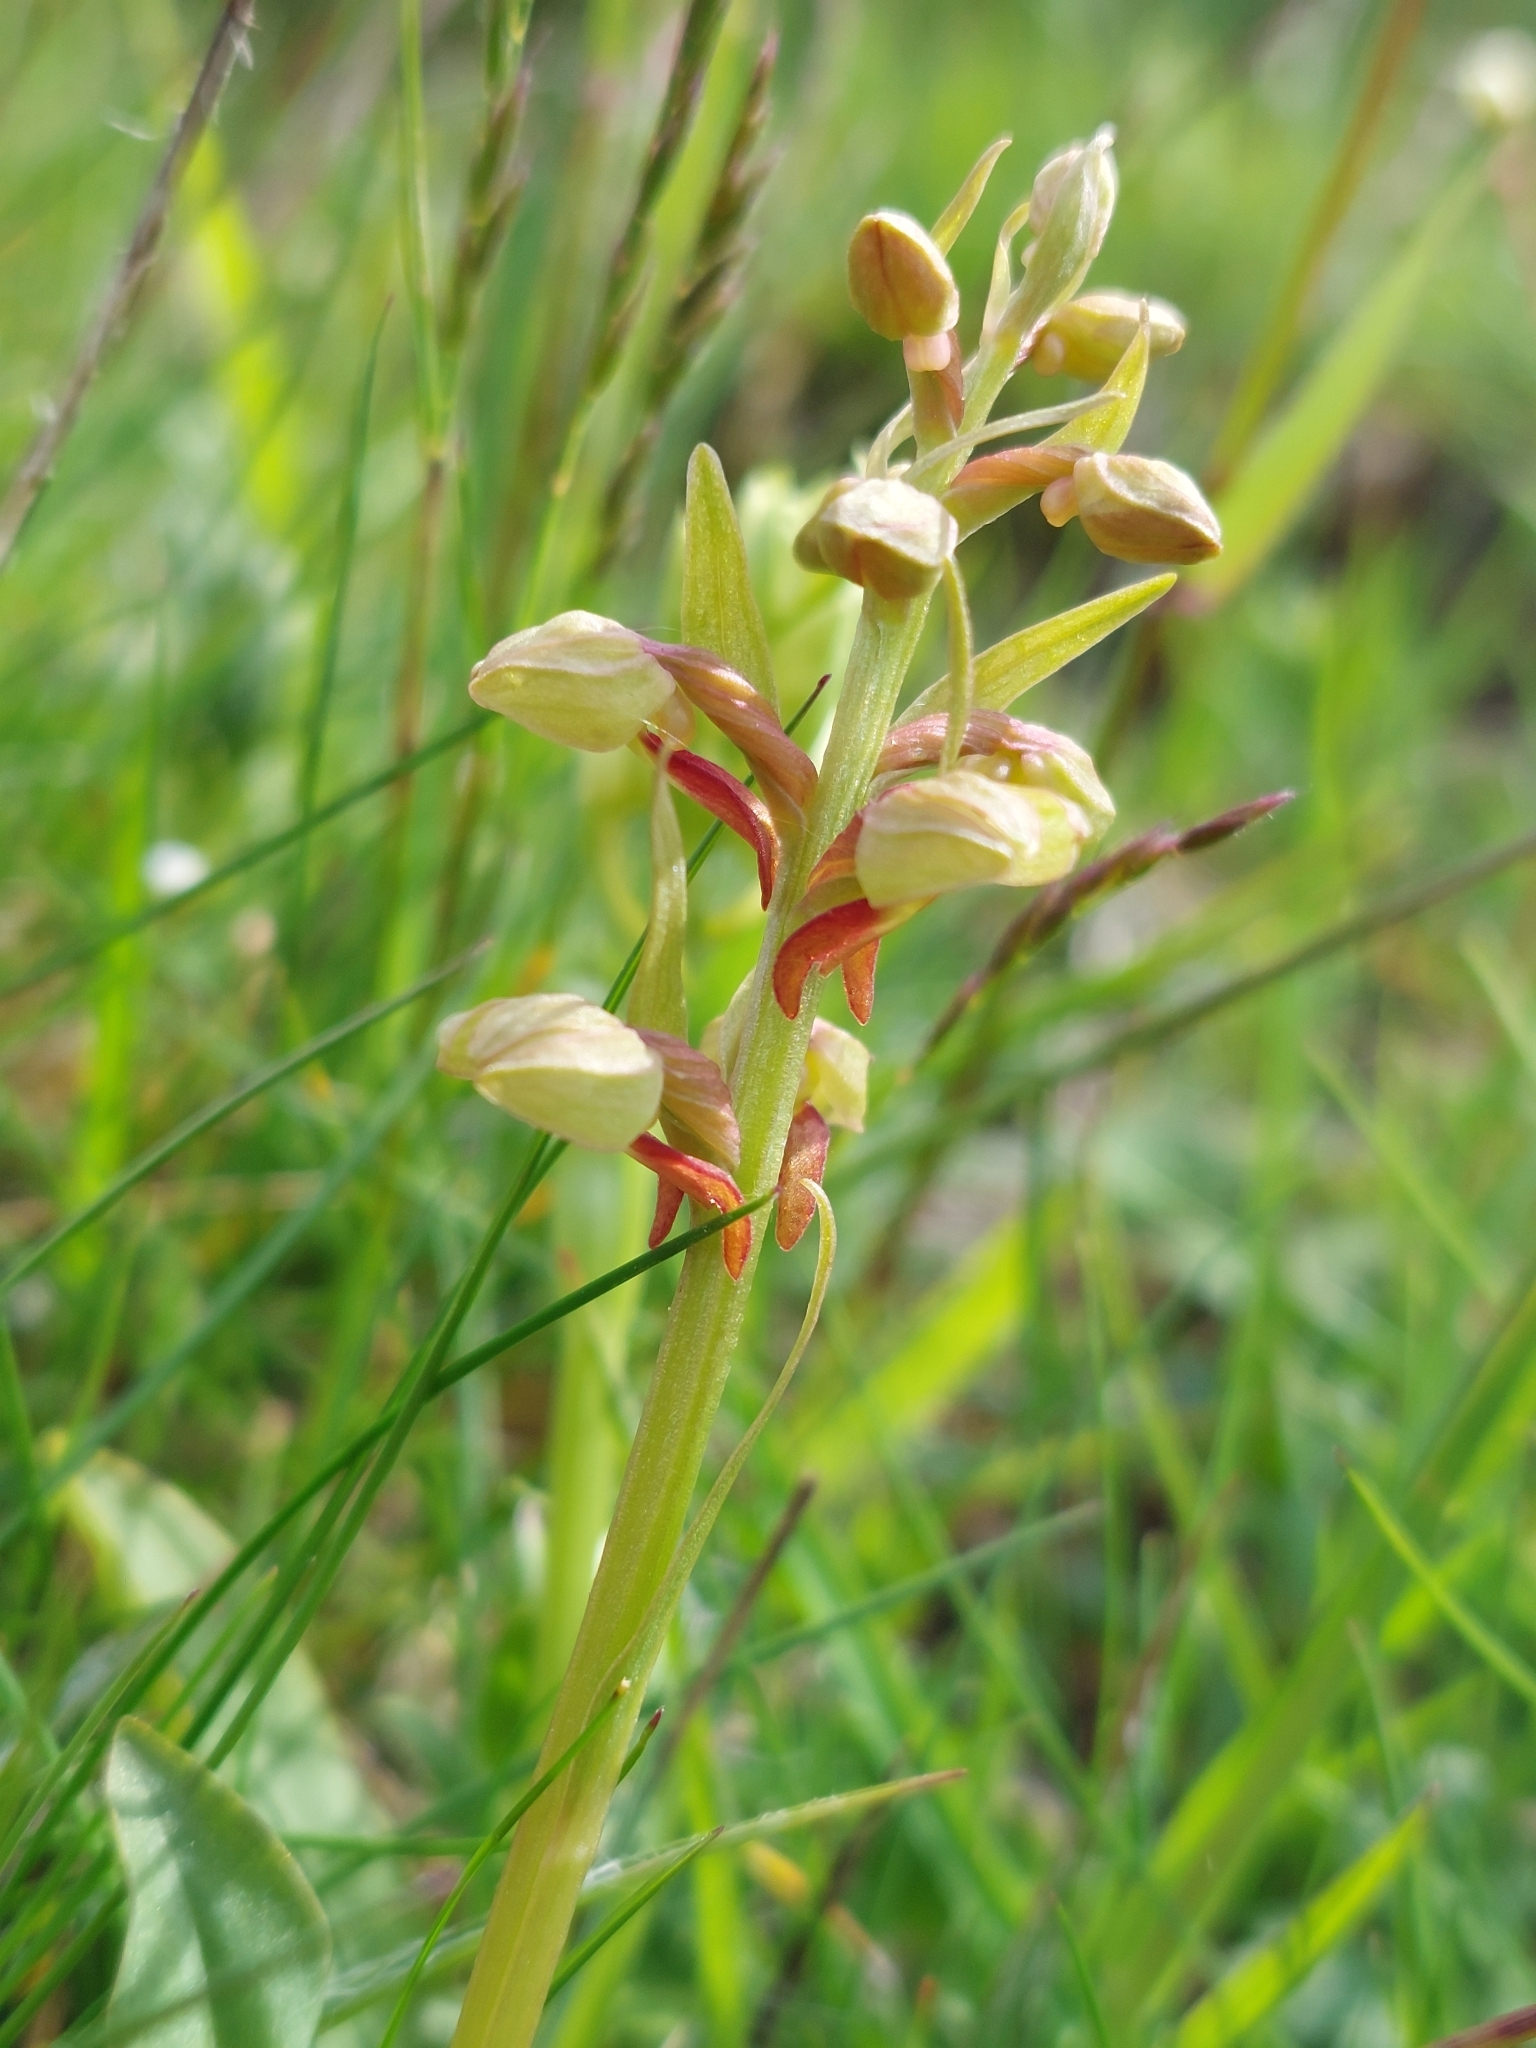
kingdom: Plantae
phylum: Tracheophyta
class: Liliopsida
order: Asparagales
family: Orchidaceae
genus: Dactylorhiza
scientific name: Dactylorhiza viridis
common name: Longbract frog orchid
